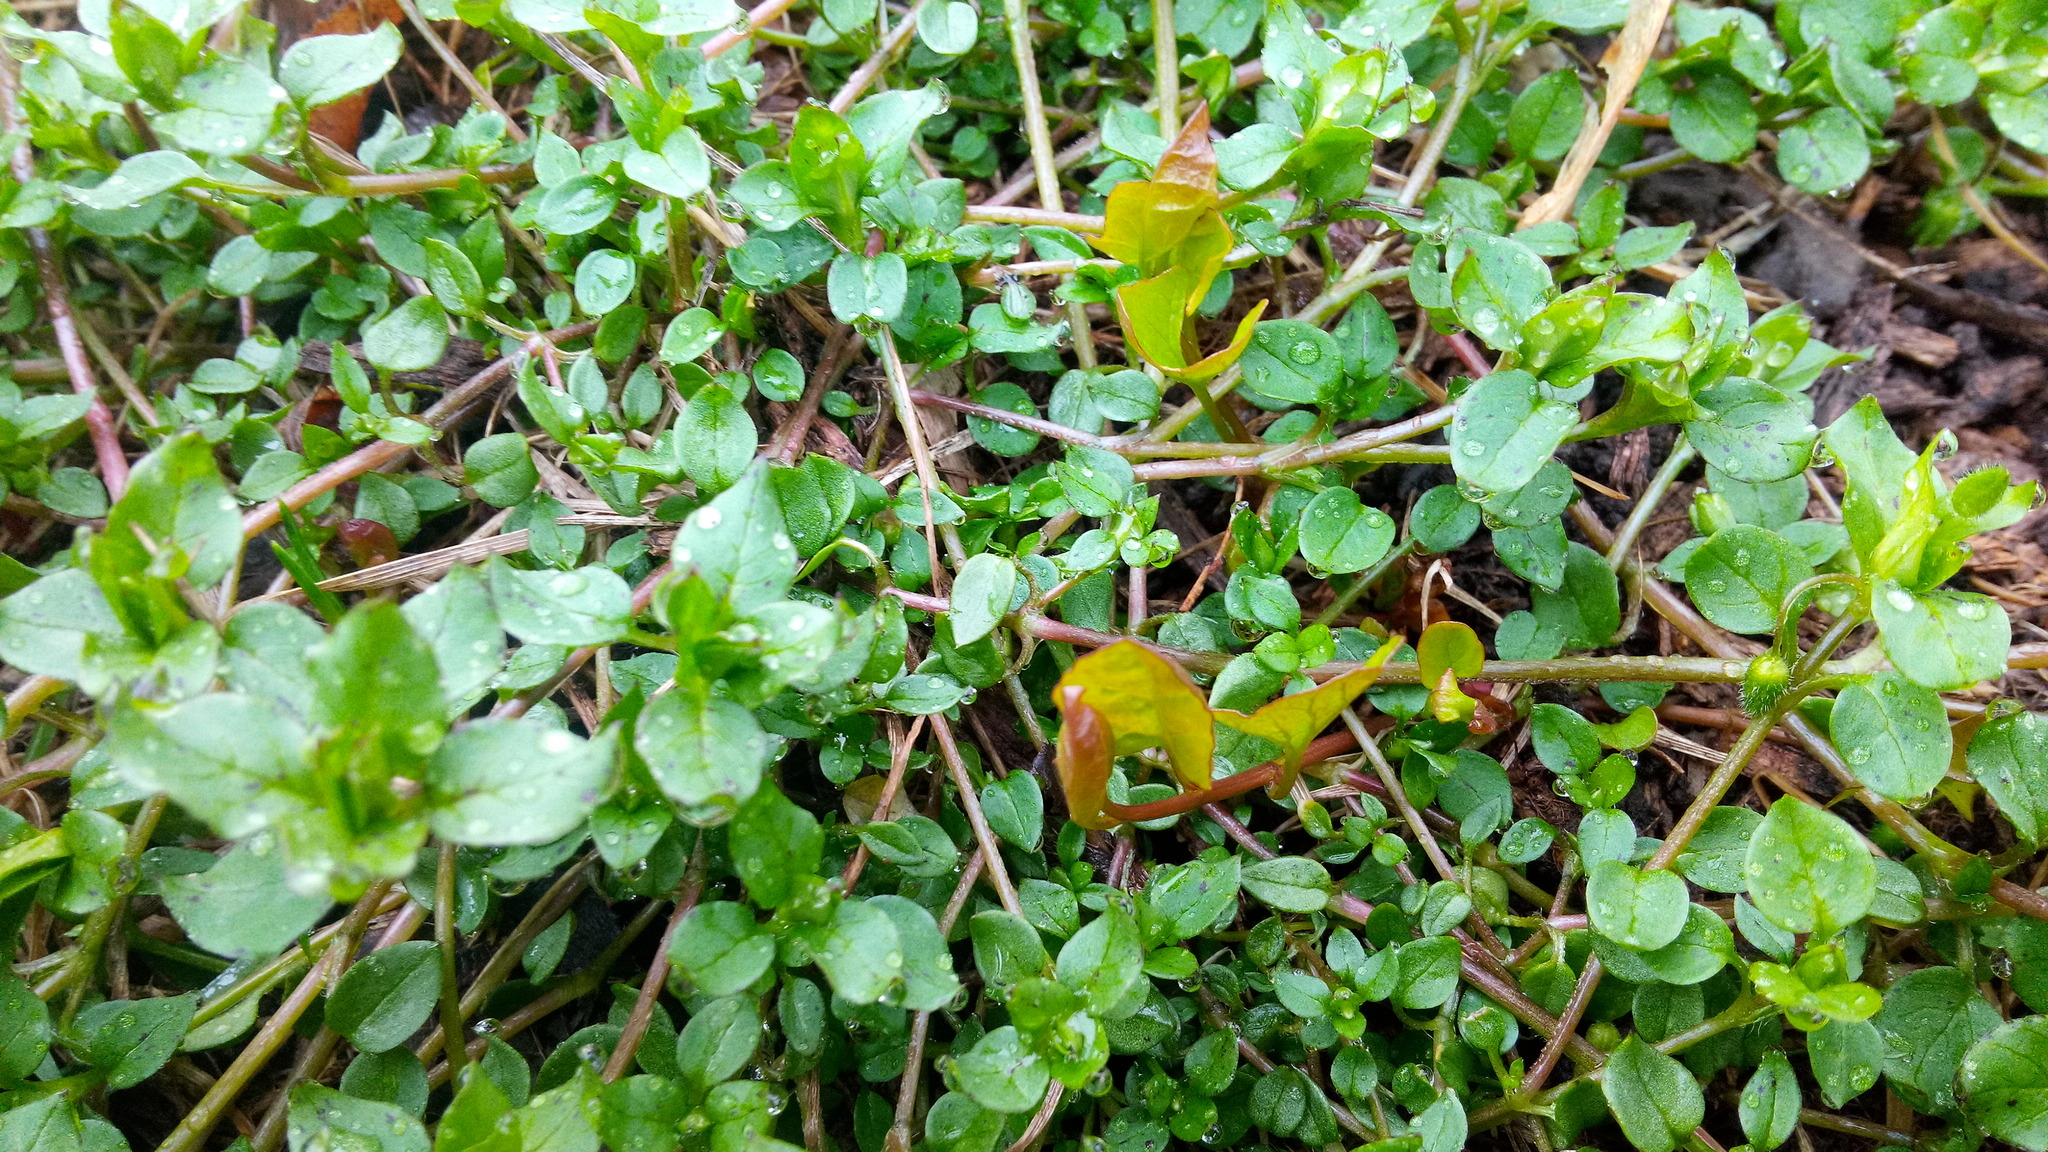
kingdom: Plantae
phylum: Tracheophyta
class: Magnoliopsida
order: Solanales
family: Convolvulaceae
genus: Convolvulus
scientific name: Convolvulus arvensis
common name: Field bindweed
